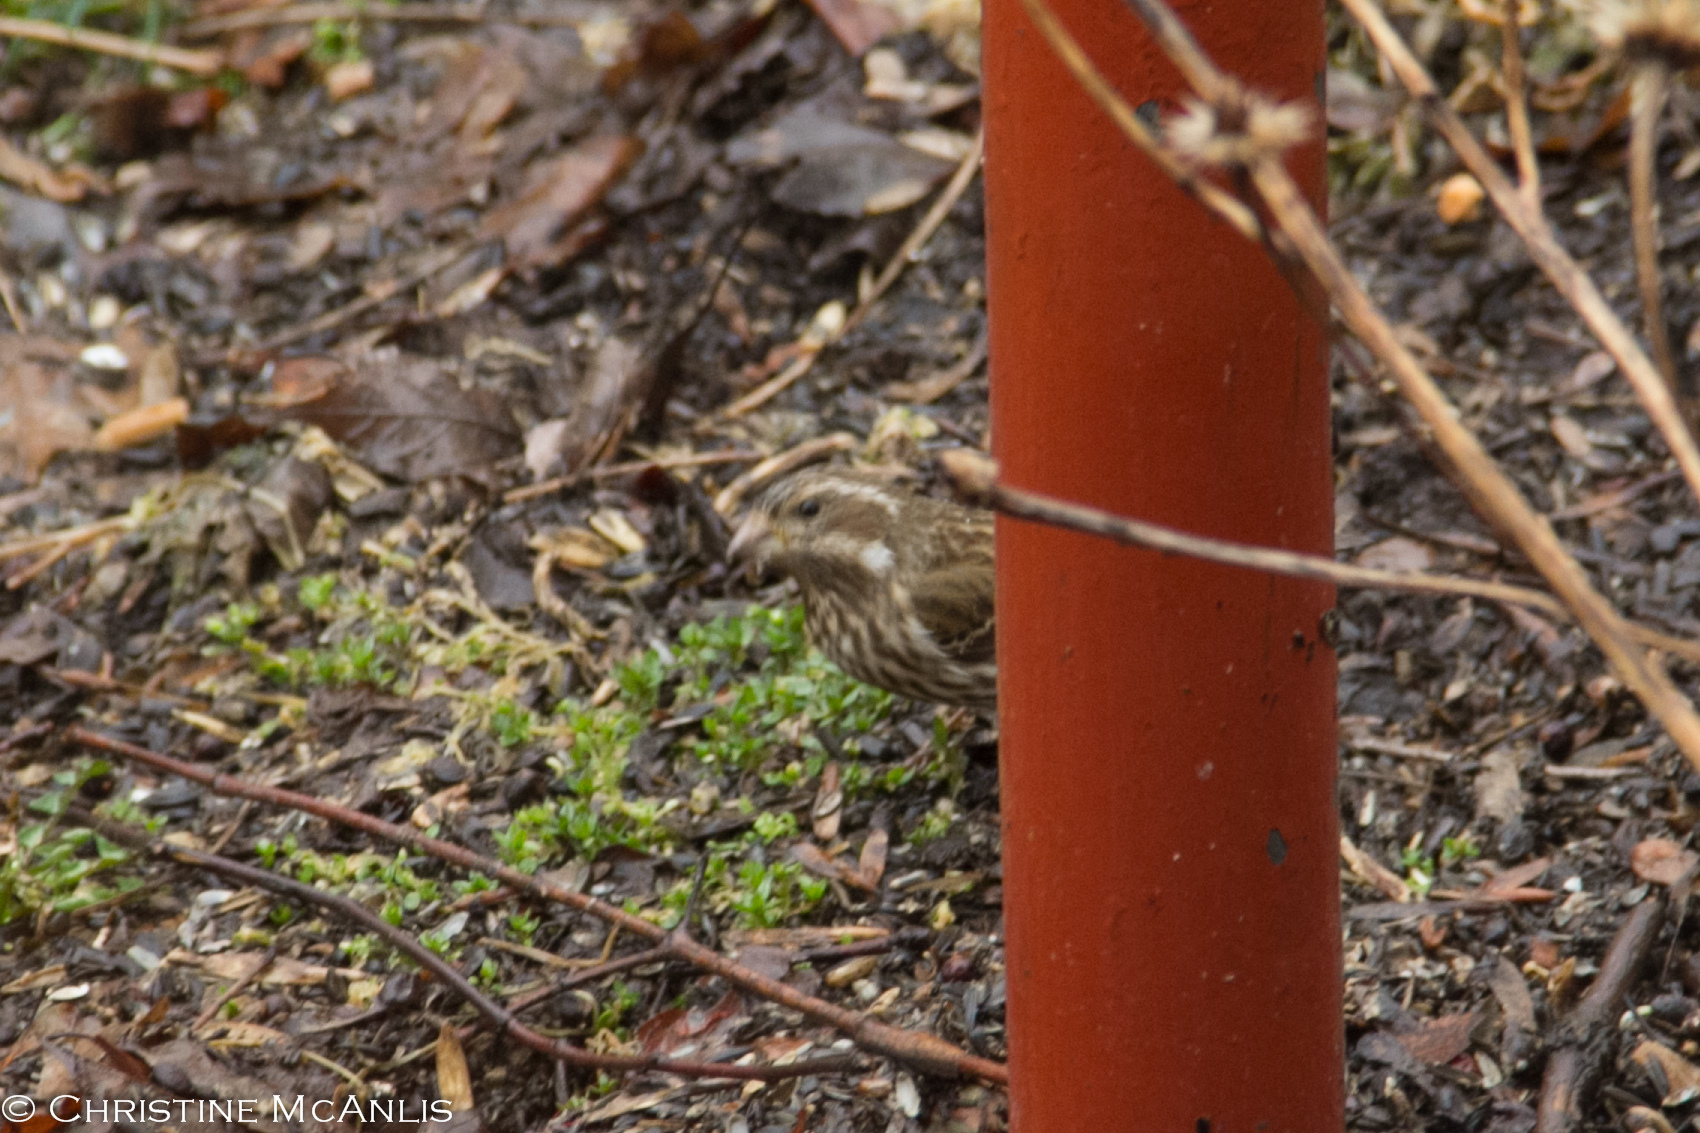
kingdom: Animalia
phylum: Chordata
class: Aves
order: Passeriformes
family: Fringillidae
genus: Haemorhous
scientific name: Haemorhous purpureus
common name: Purple finch
